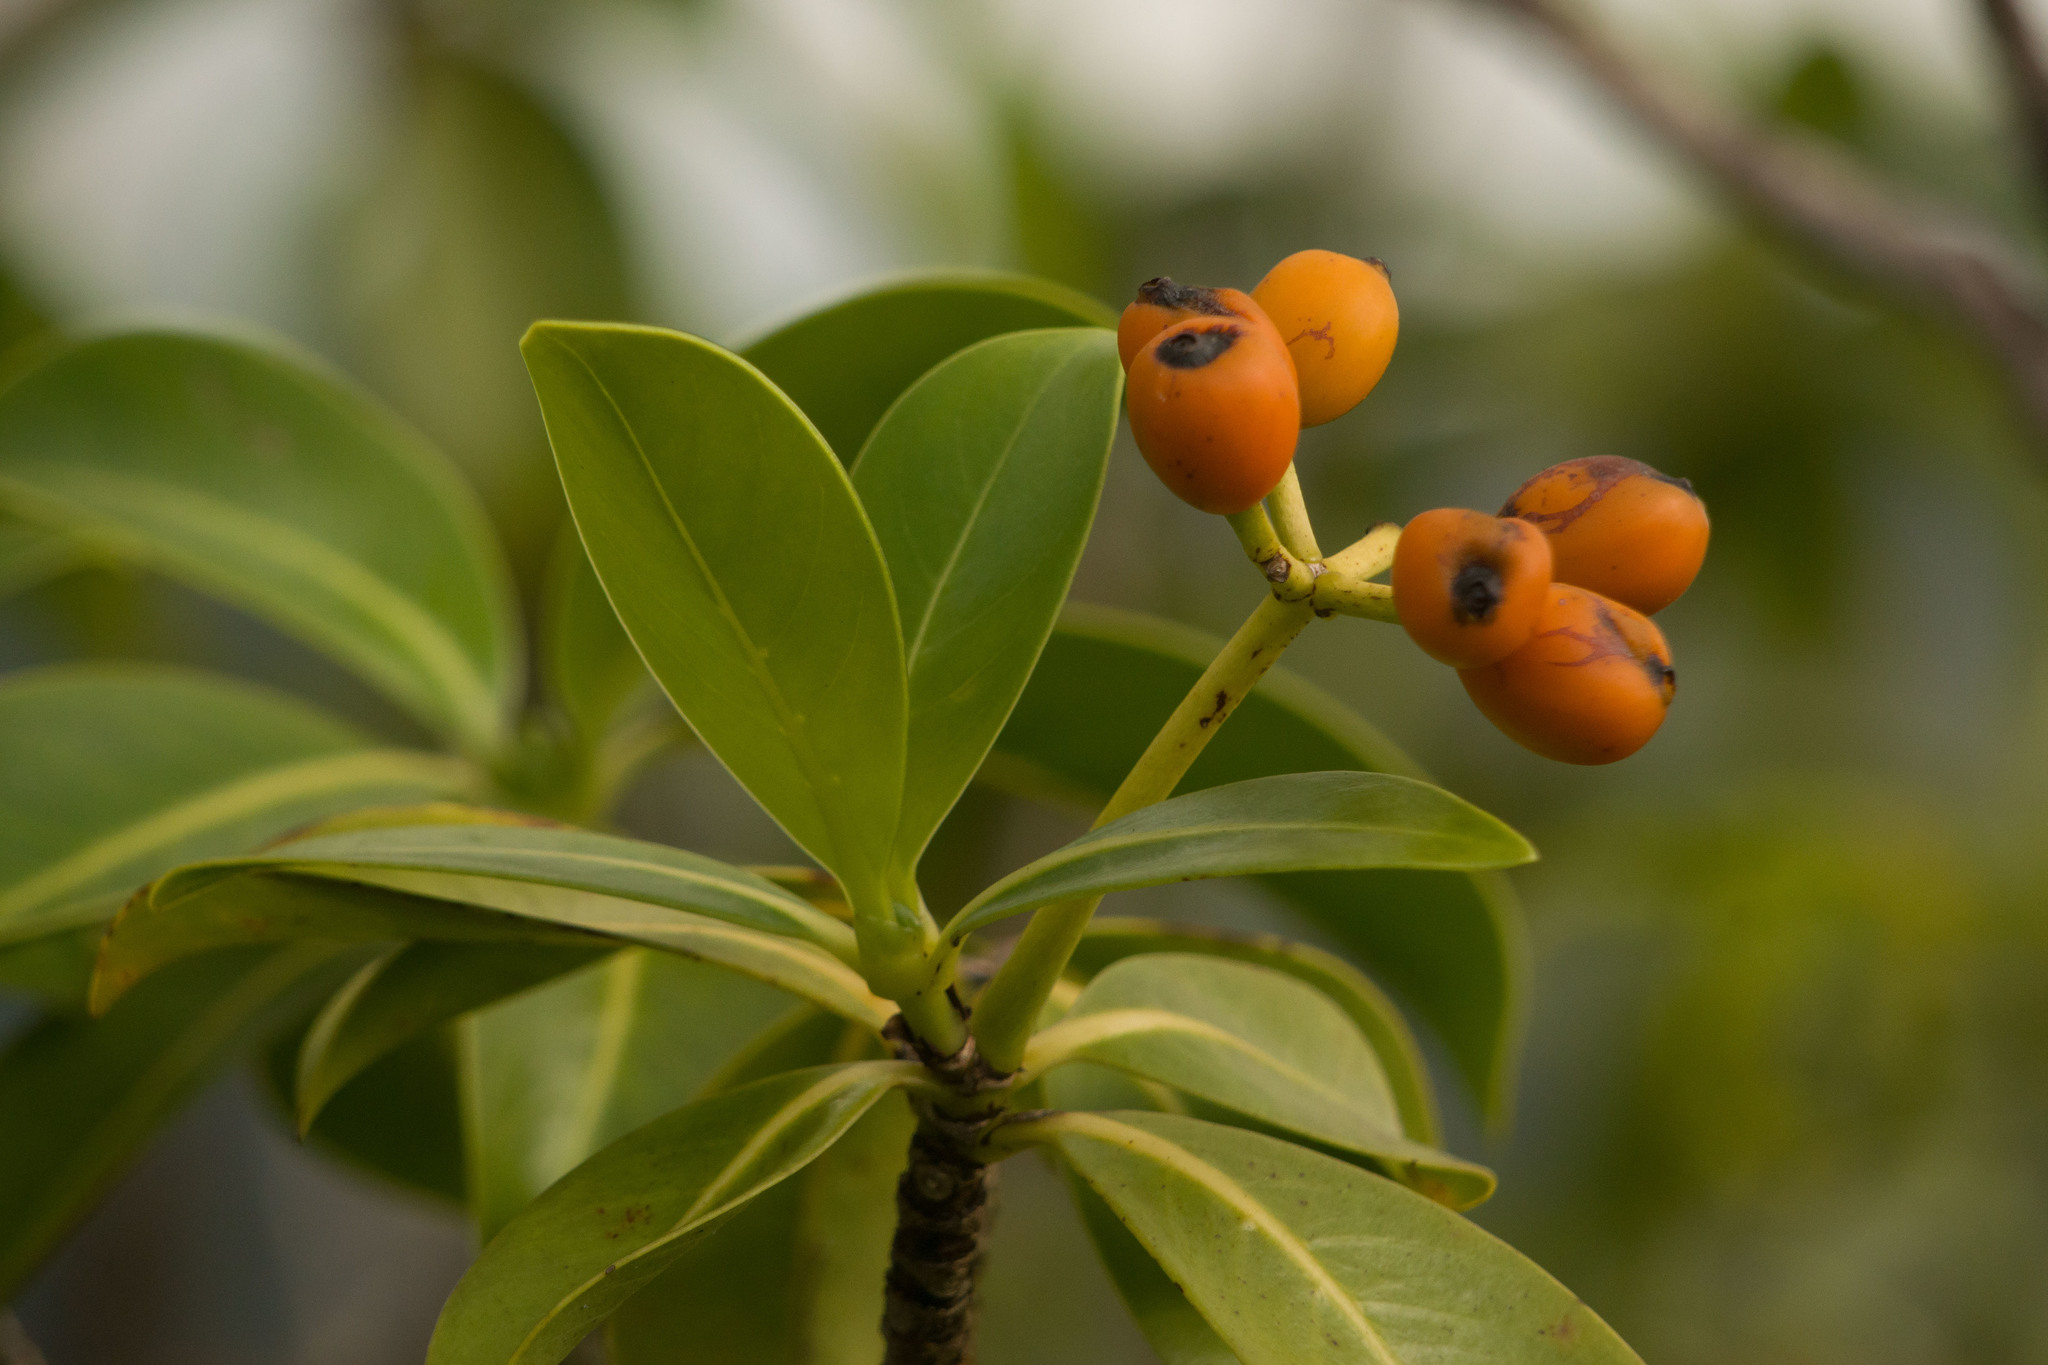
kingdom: Plantae
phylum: Tracheophyta
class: Magnoliopsida
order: Gentianales
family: Rubiaceae
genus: Psychotria
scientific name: Psychotria mariniana
